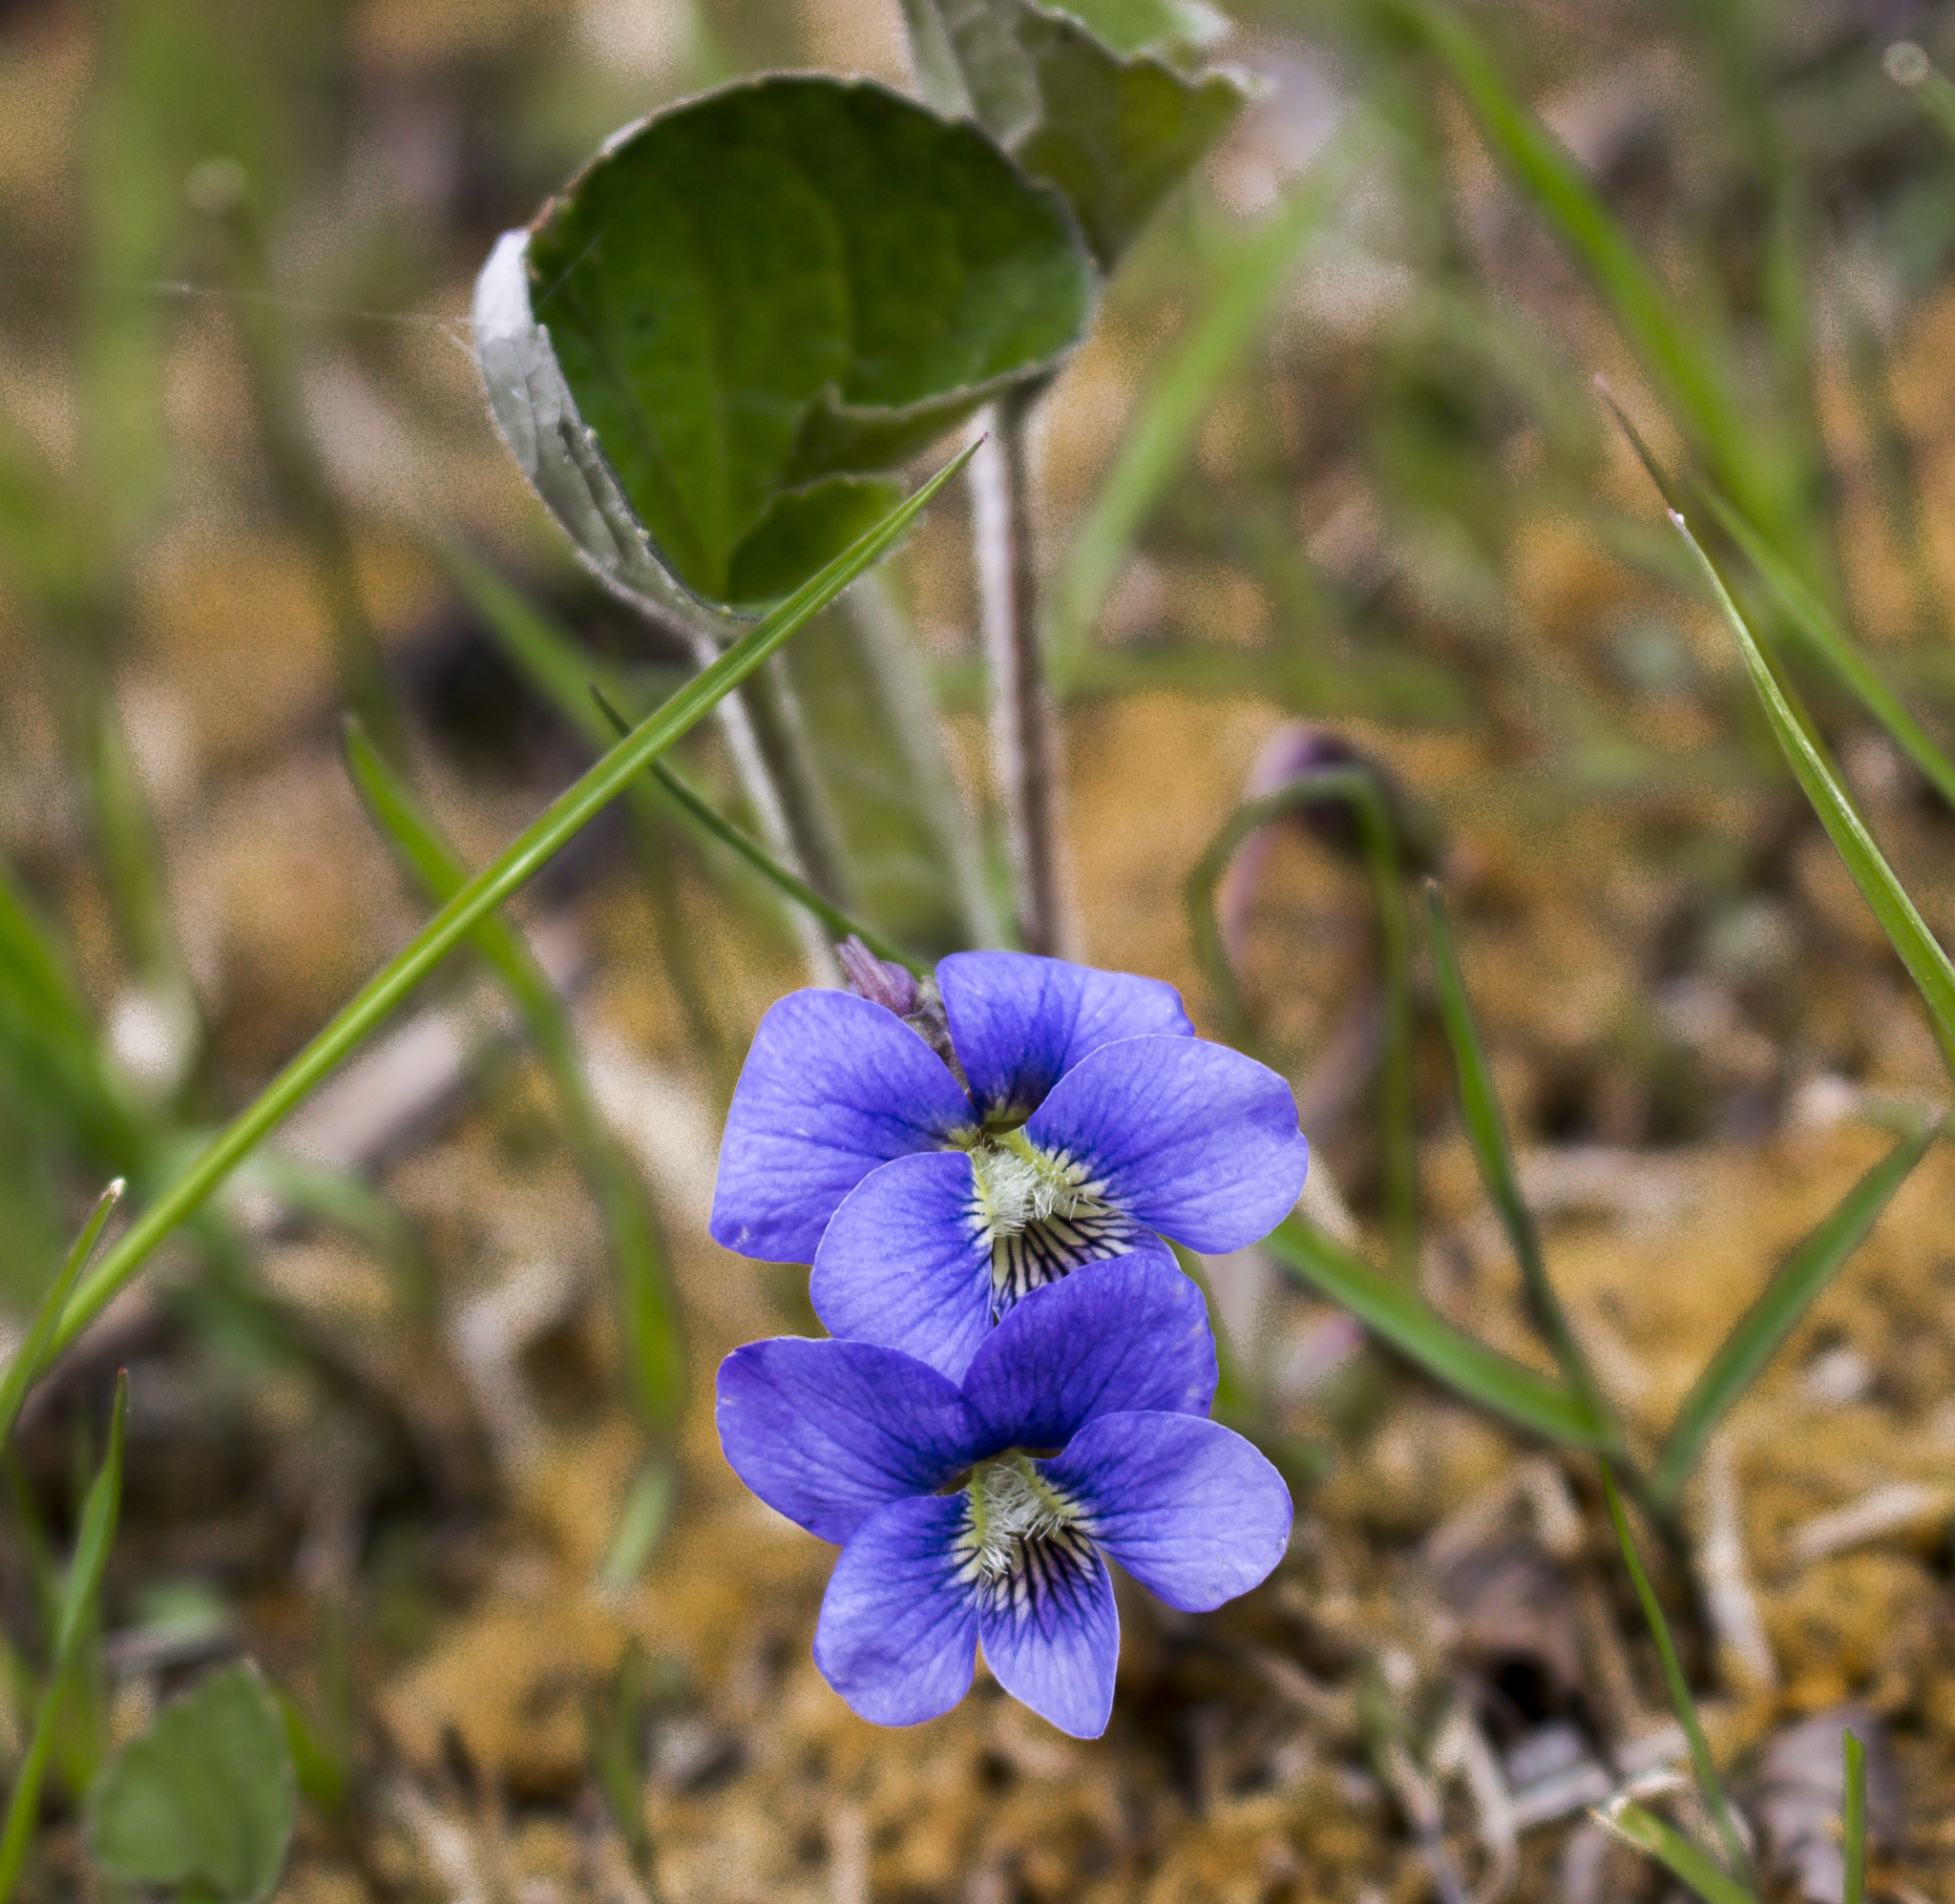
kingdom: Plantae
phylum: Tracheophyta
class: Magnoliopsida
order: Malpighiales
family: Violaceae
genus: Viola
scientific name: Viola sororia
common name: Dooryard violet
